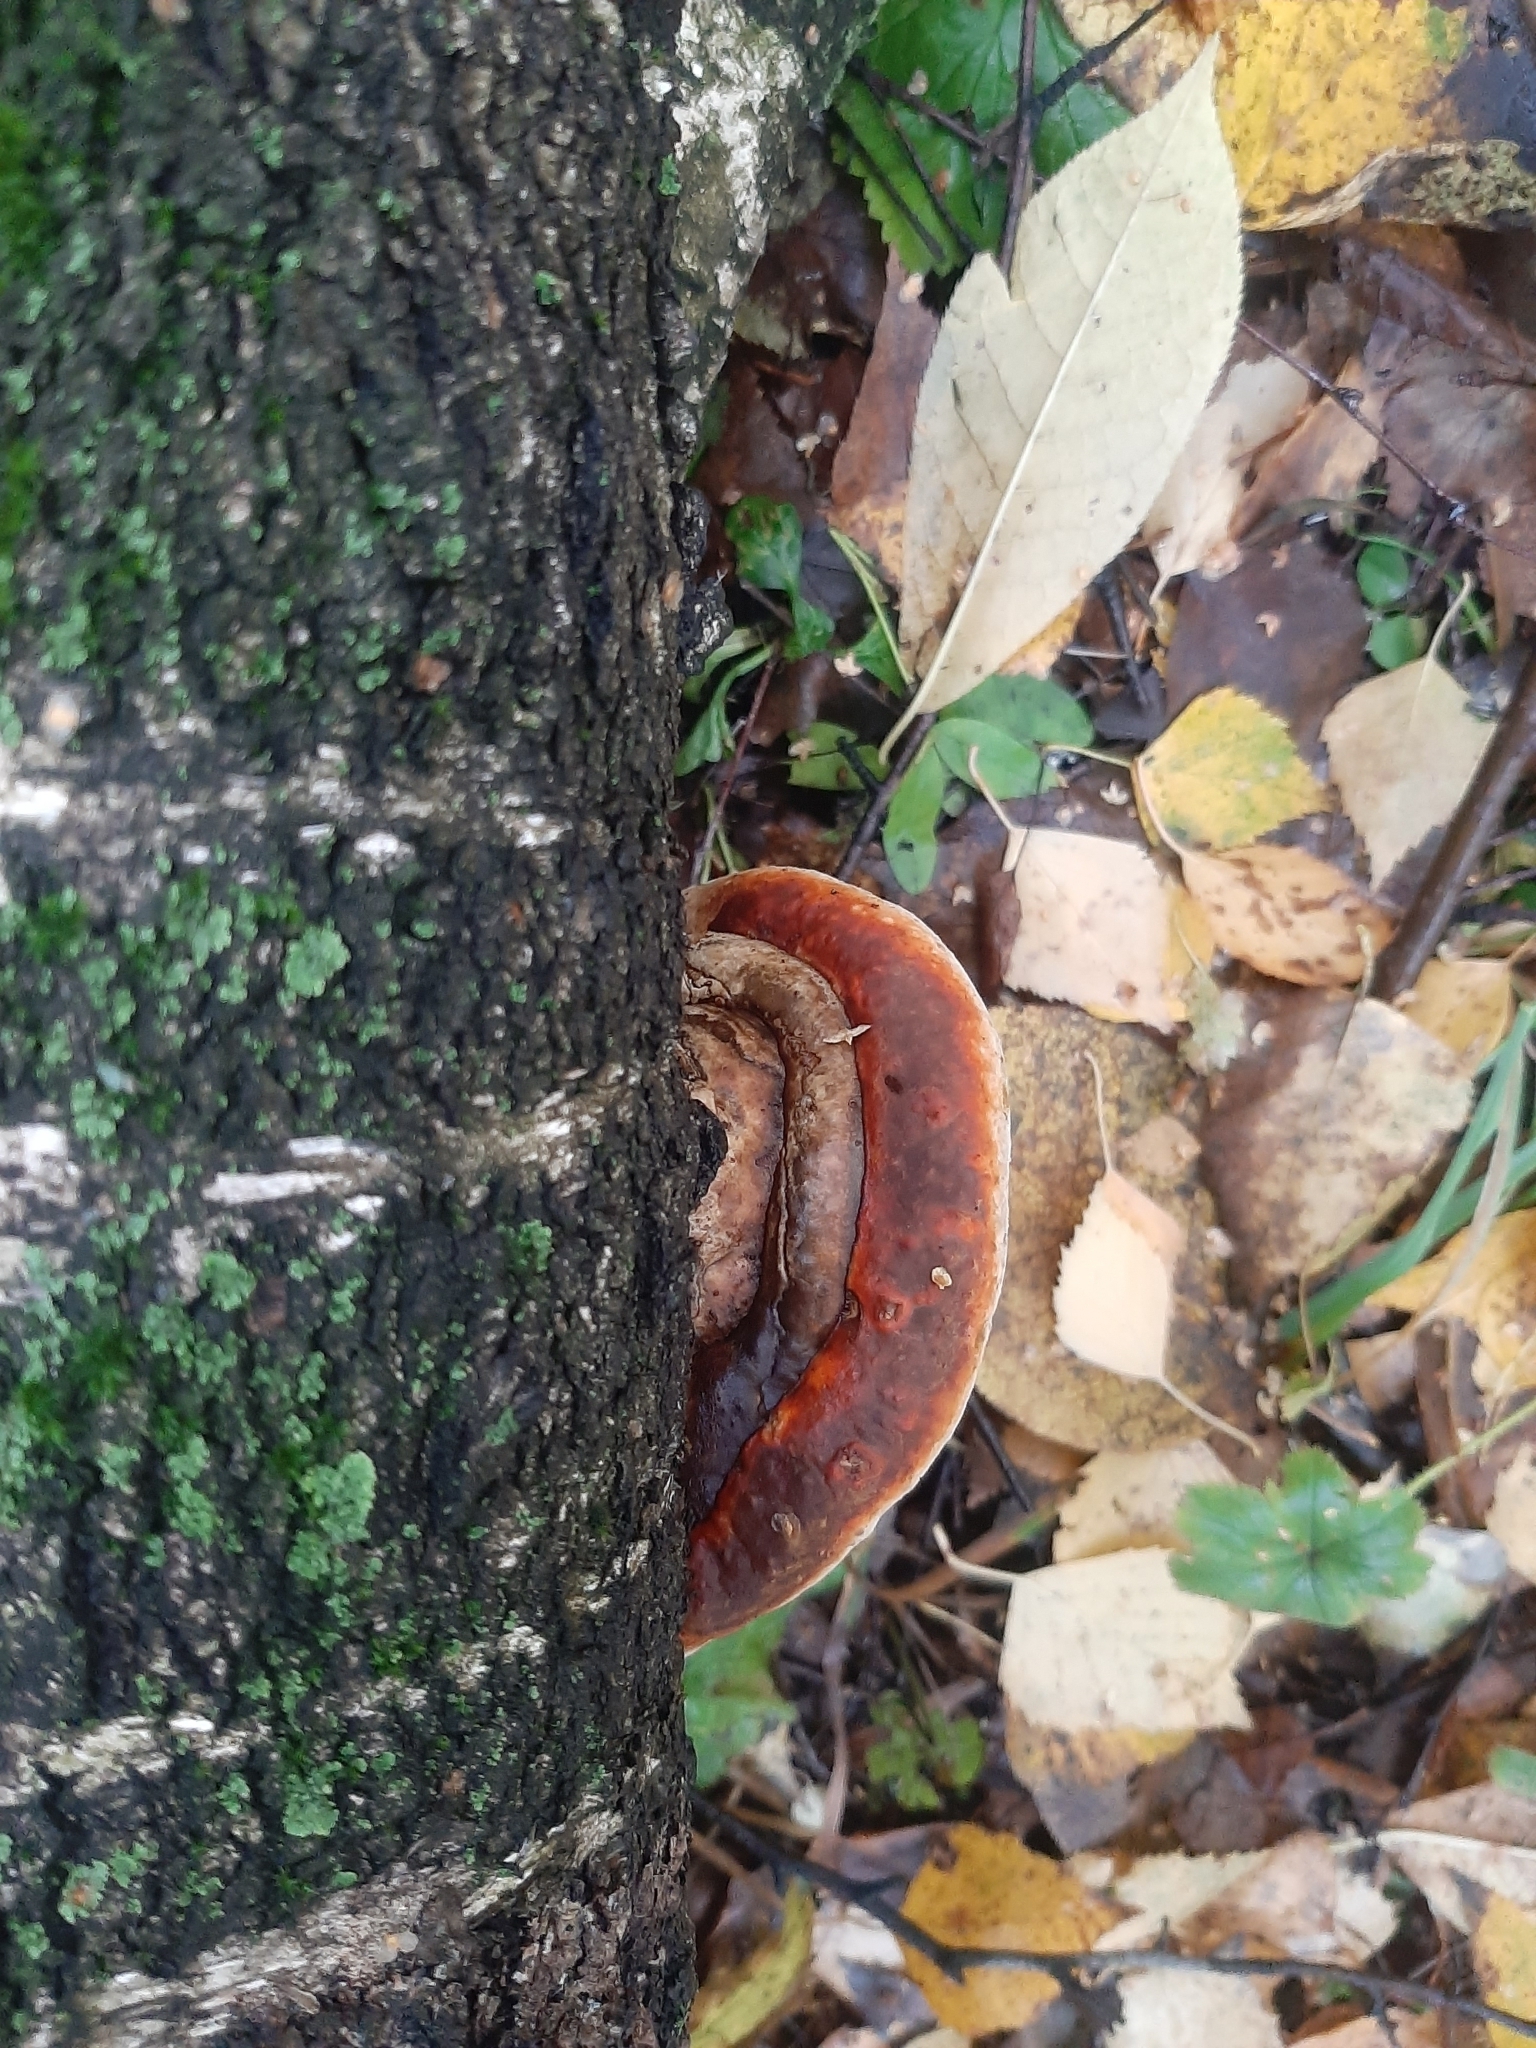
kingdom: Fungi
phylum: Basidiomycota
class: Agaricomycetes
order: Polyporales
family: Fomitopsidaceae
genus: Fomitopsis
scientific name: Fomitopsis pinicola
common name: Red-belted bracket
